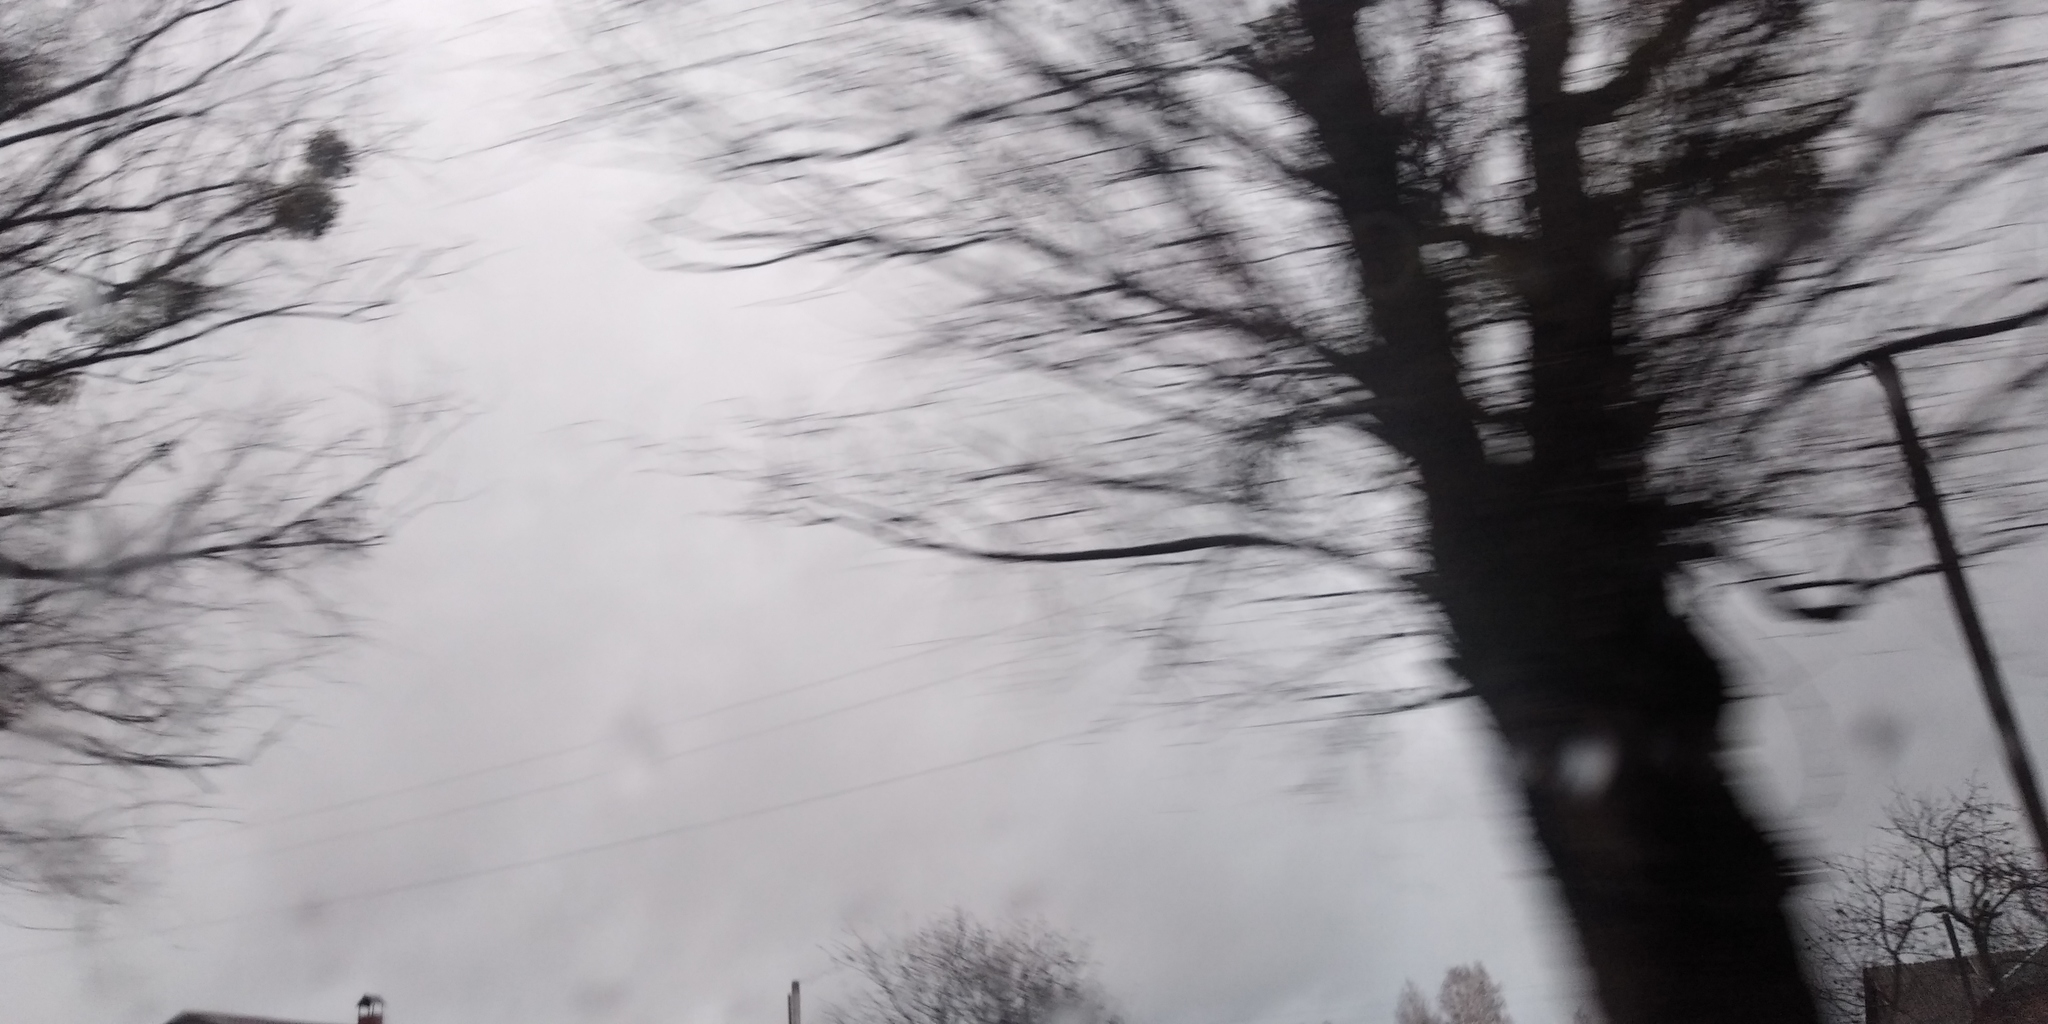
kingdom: Plantae
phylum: Tracheophyta
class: Magnoliopsida
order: Santalales
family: Viscaceae
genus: Viscum
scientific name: Viscum album
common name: Mistletoe
